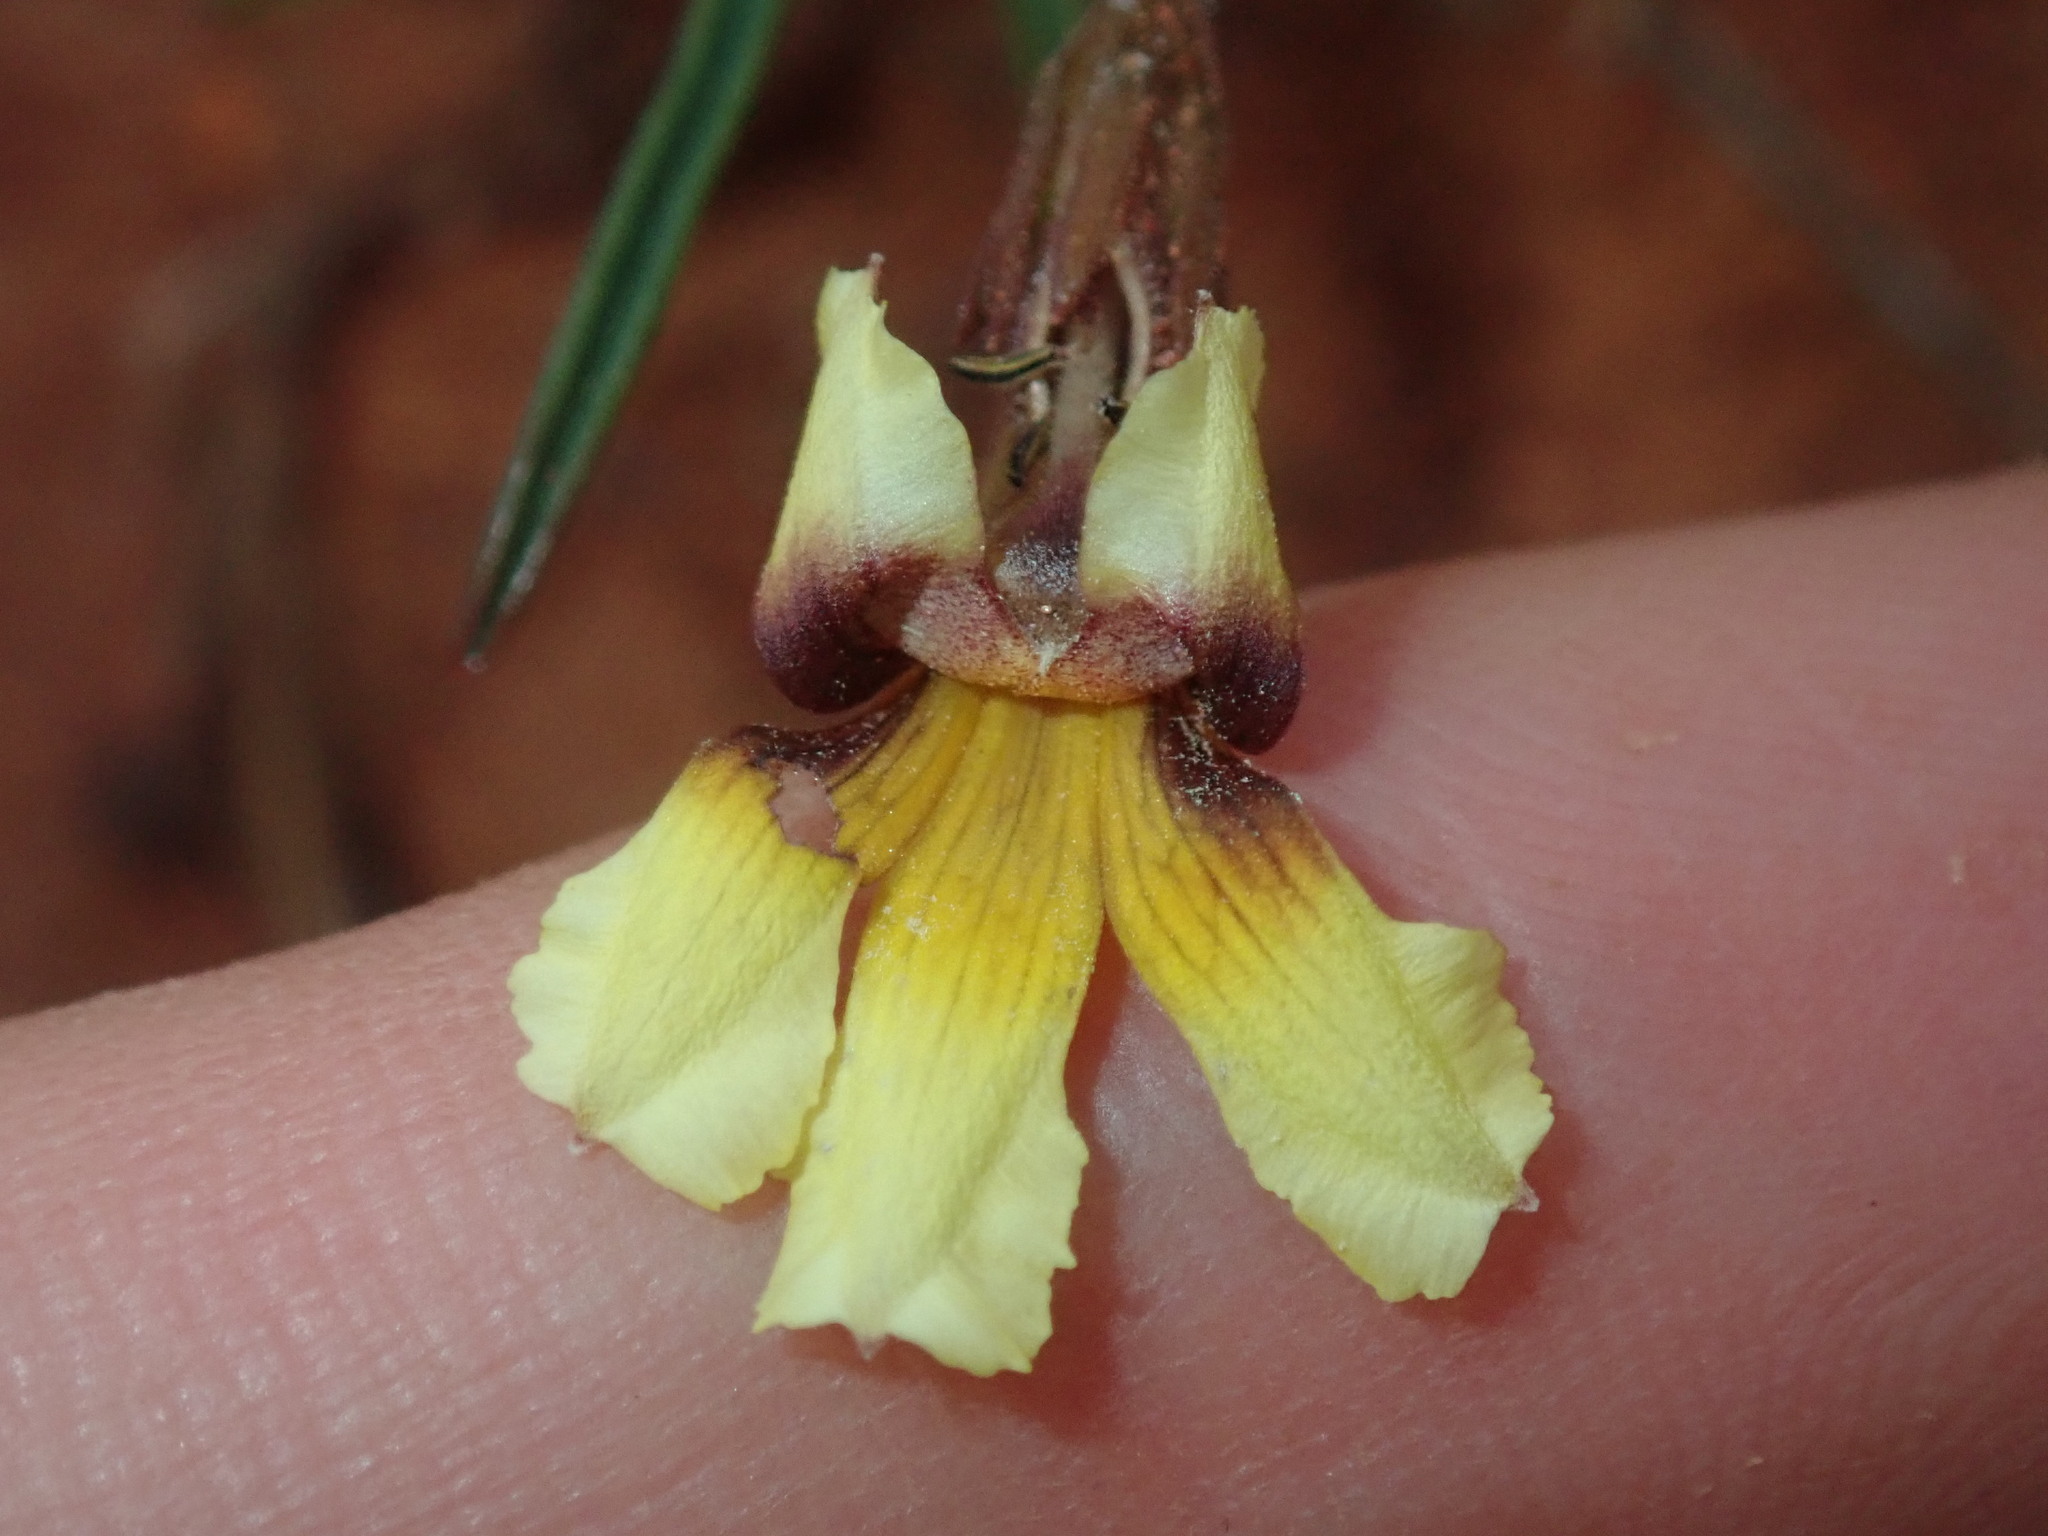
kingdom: Plantae
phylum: Tracheophyta
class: Magnoliopsida
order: Asterales
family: Goodeniaceae
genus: Goodenia
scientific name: Goodenia triodiophila
